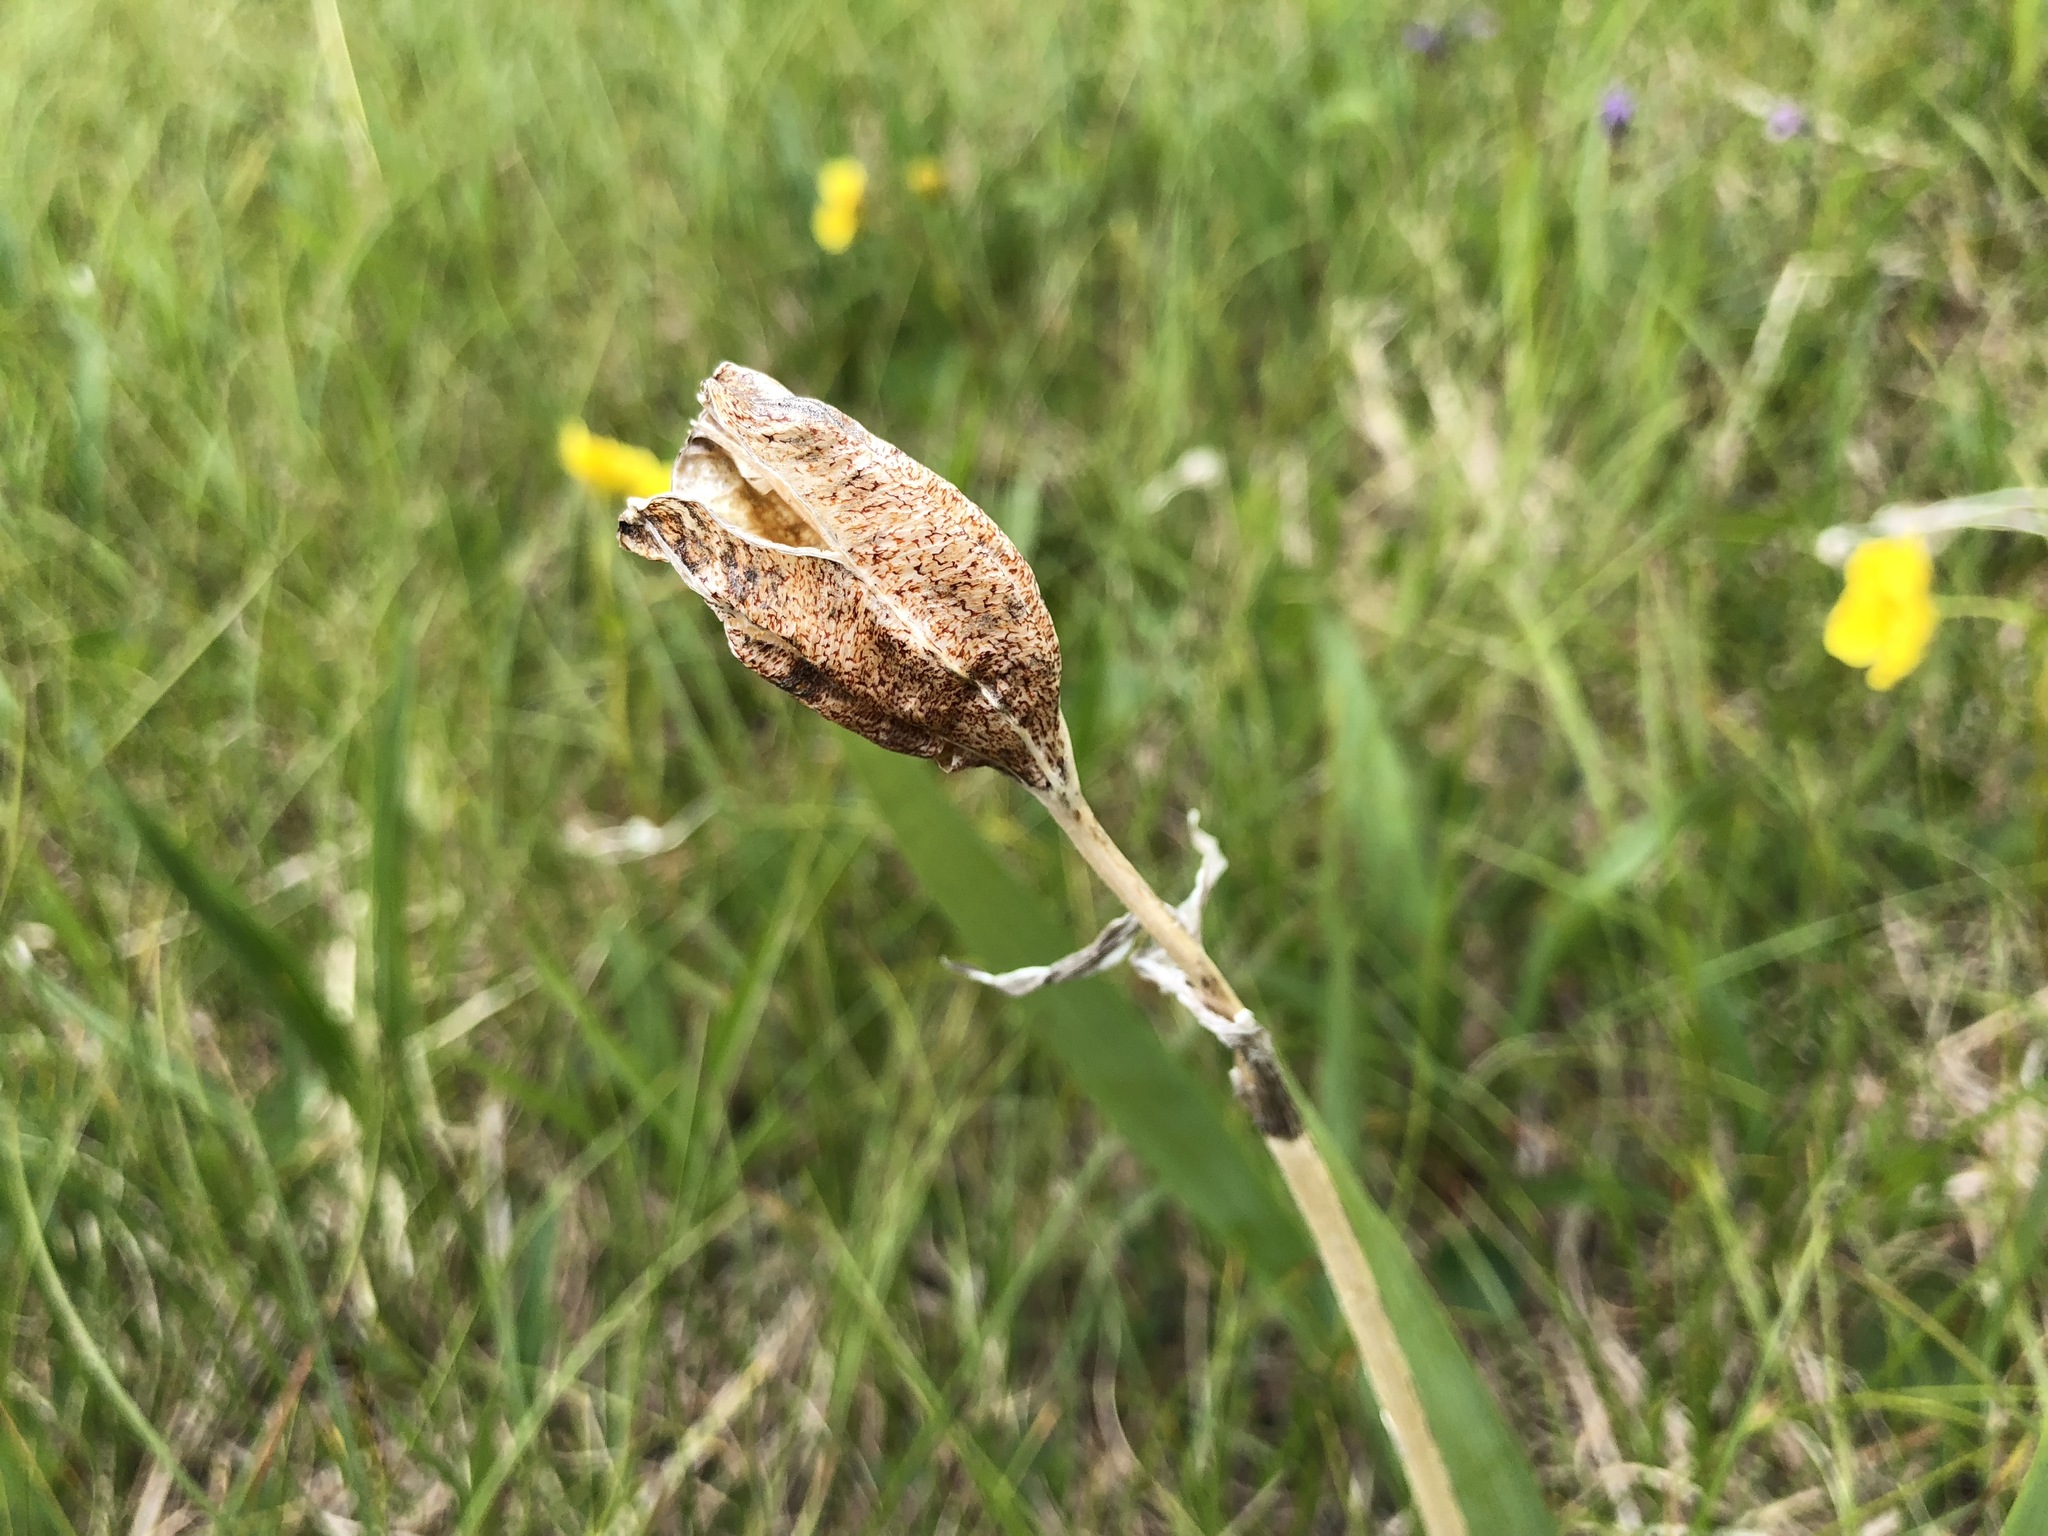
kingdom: Plantae
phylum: Tracheophyta
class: Liliopsida
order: Asparagales
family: Iridaceae
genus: Iris
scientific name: Iris setosa
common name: Arctic blue flag
